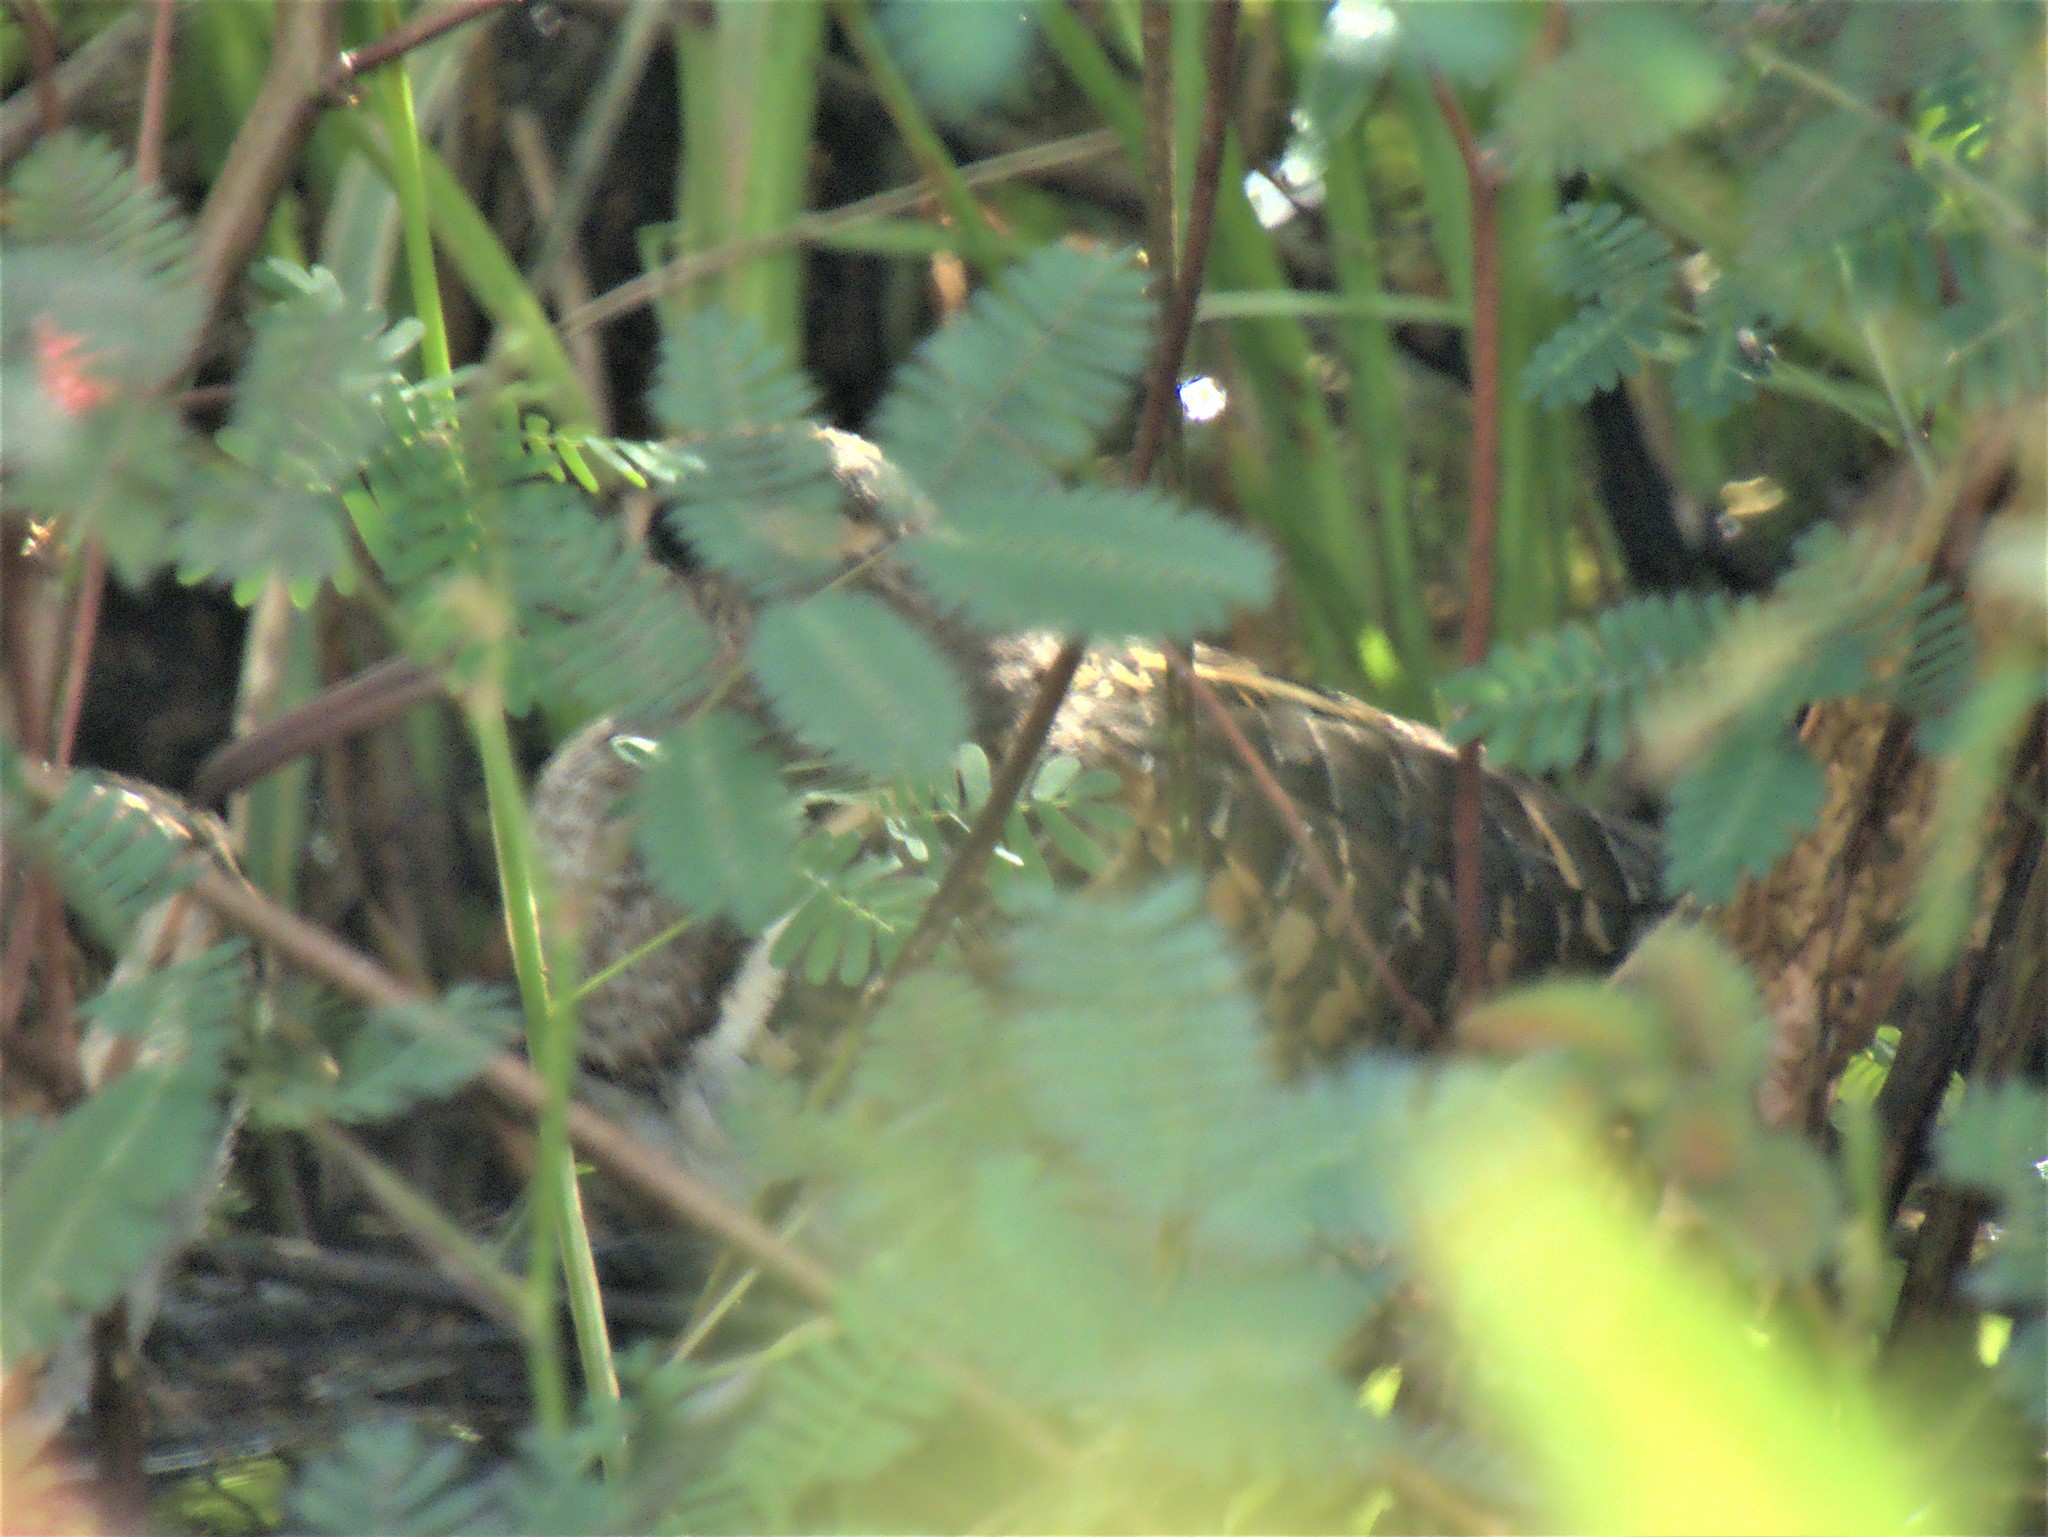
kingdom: Animalia
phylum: Chordata
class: Aves
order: Charadriiformes
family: Rostratulidae
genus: Rostratula
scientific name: Rostratula benghalensis
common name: Greater painted-snipe
